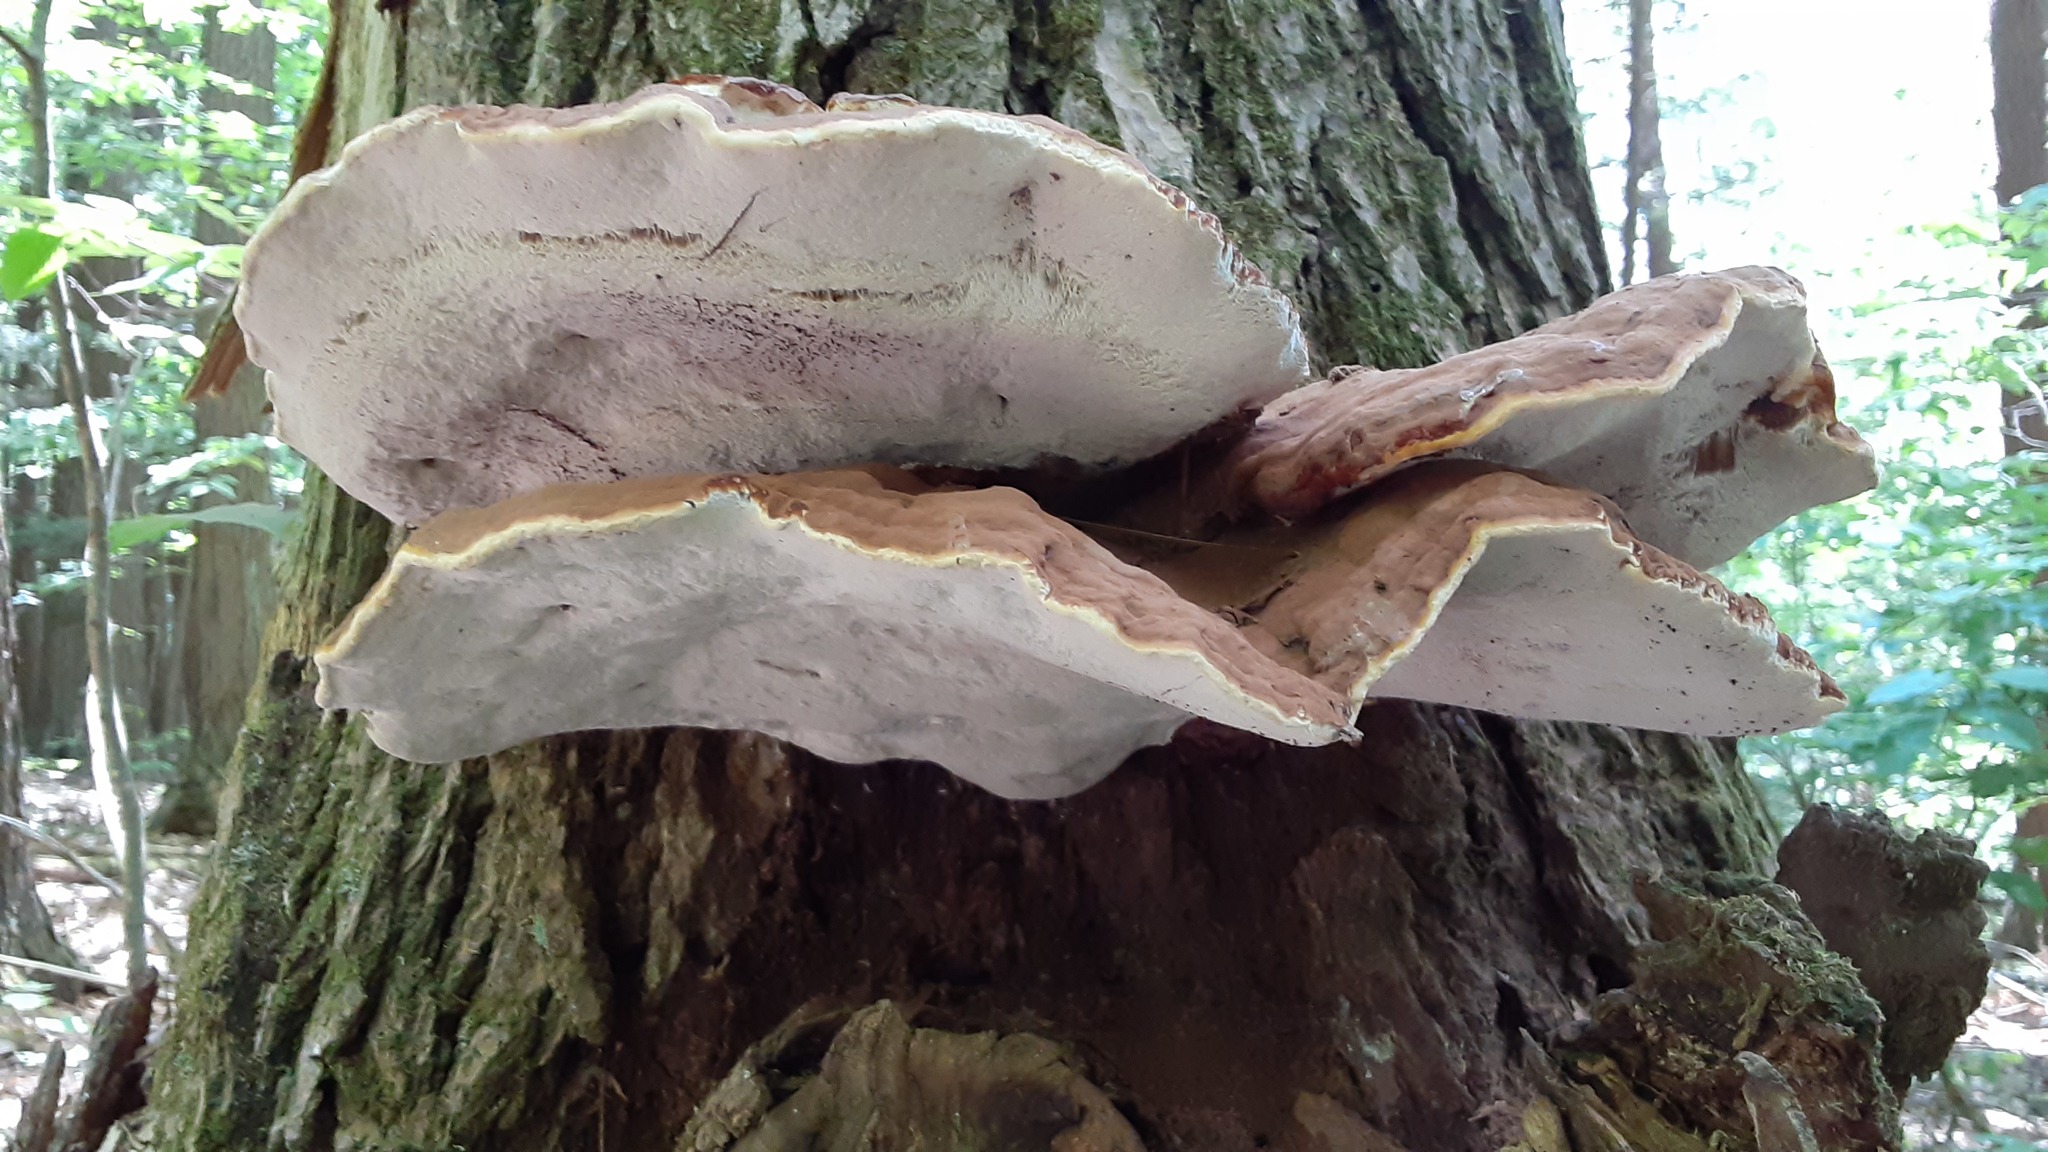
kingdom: Fungi
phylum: Basidiomycota
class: Agaricomycetes
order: Polyporales
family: Polyporaceae
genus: Ganoderma
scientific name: Ganoderma tsugae
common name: Hemlock varnish shelf
